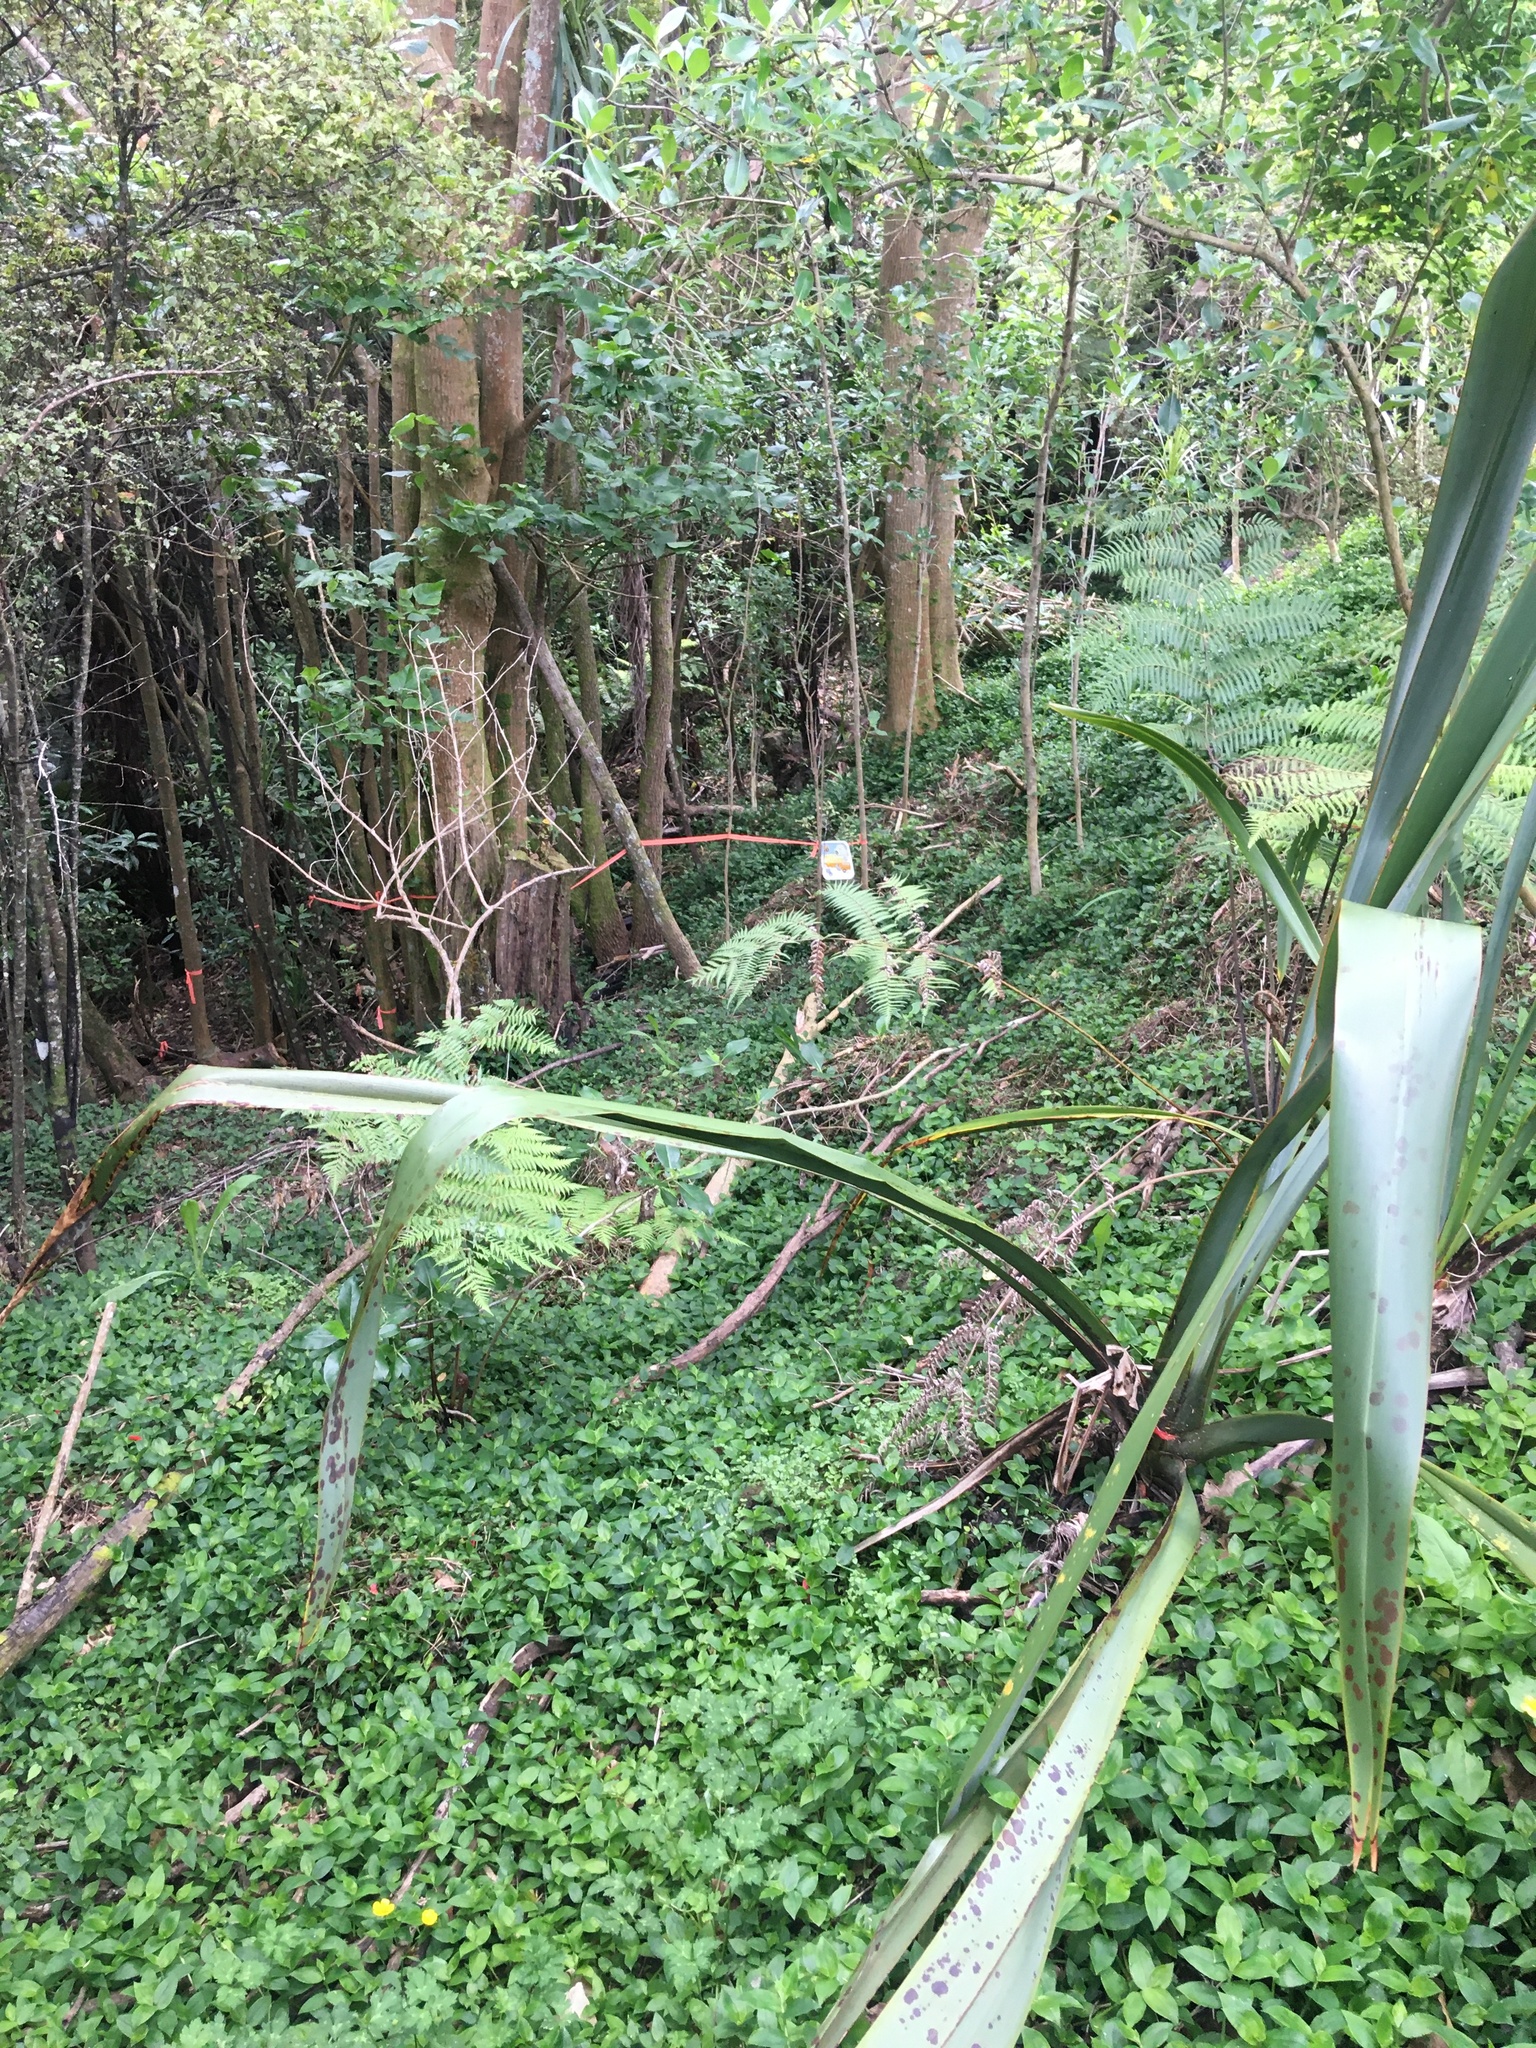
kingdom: Plantae
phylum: Tracheophyta
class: Polypodiopsida
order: Cyatheales
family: Cyatheaceae
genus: Alsophila
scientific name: Alsophila dealbata
